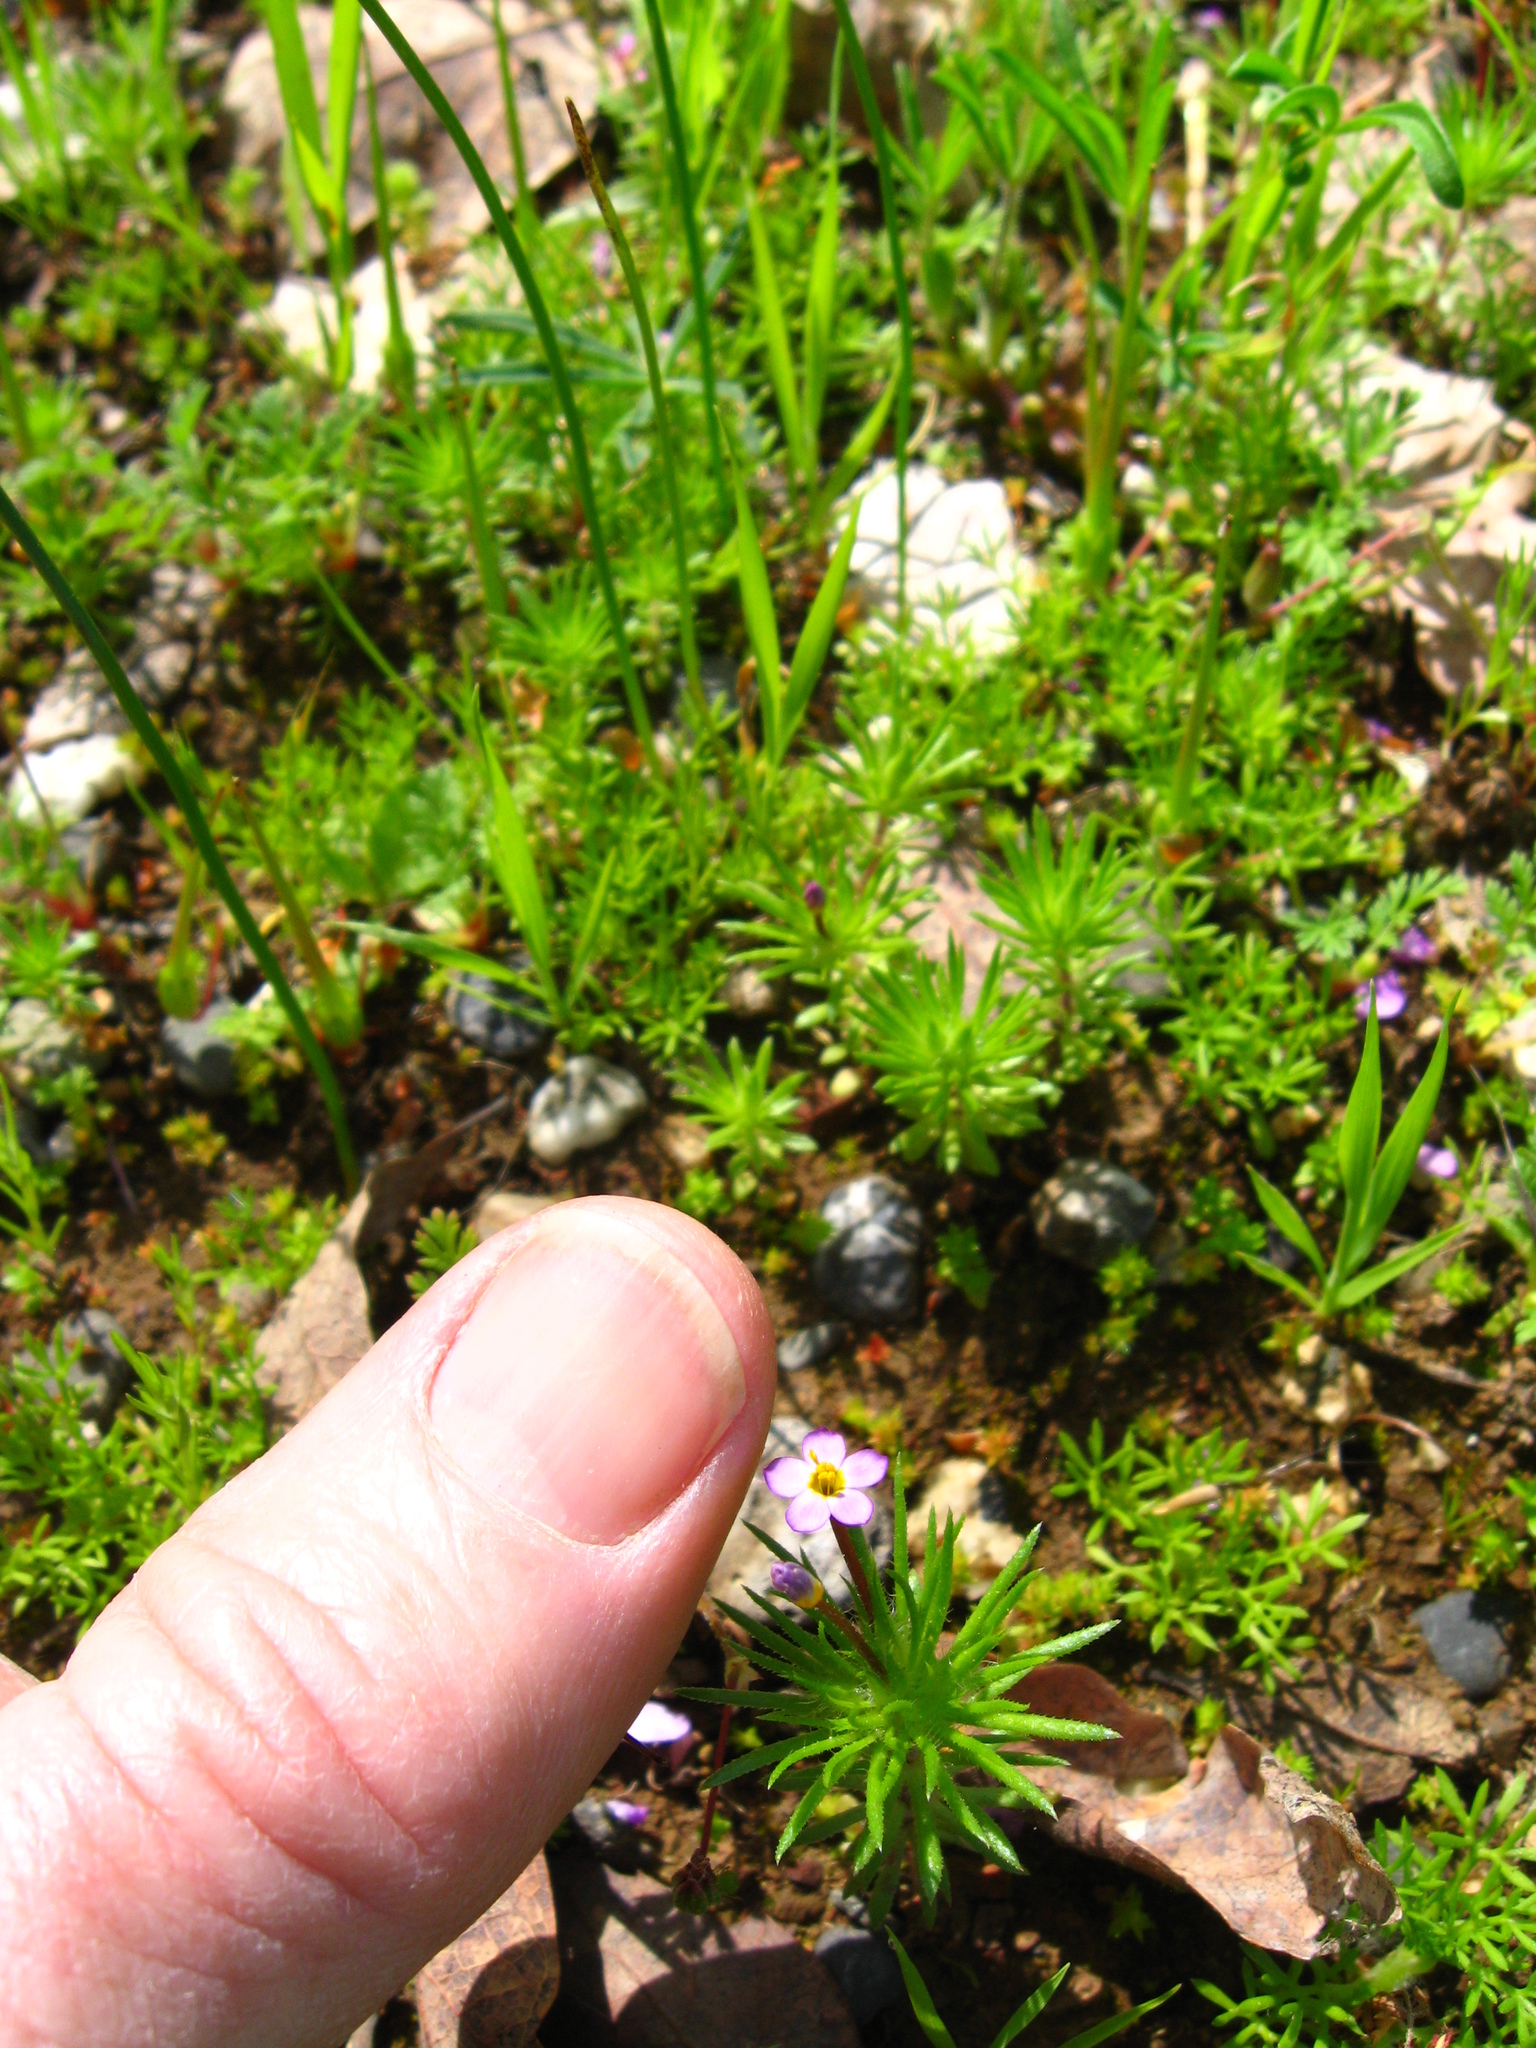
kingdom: Plantae
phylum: Tracheophyta
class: Magnoliopsida
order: Ericales
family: Polemoniaceae
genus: Leptosiphon
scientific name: Leptosiphon bicolor
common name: True babystars
